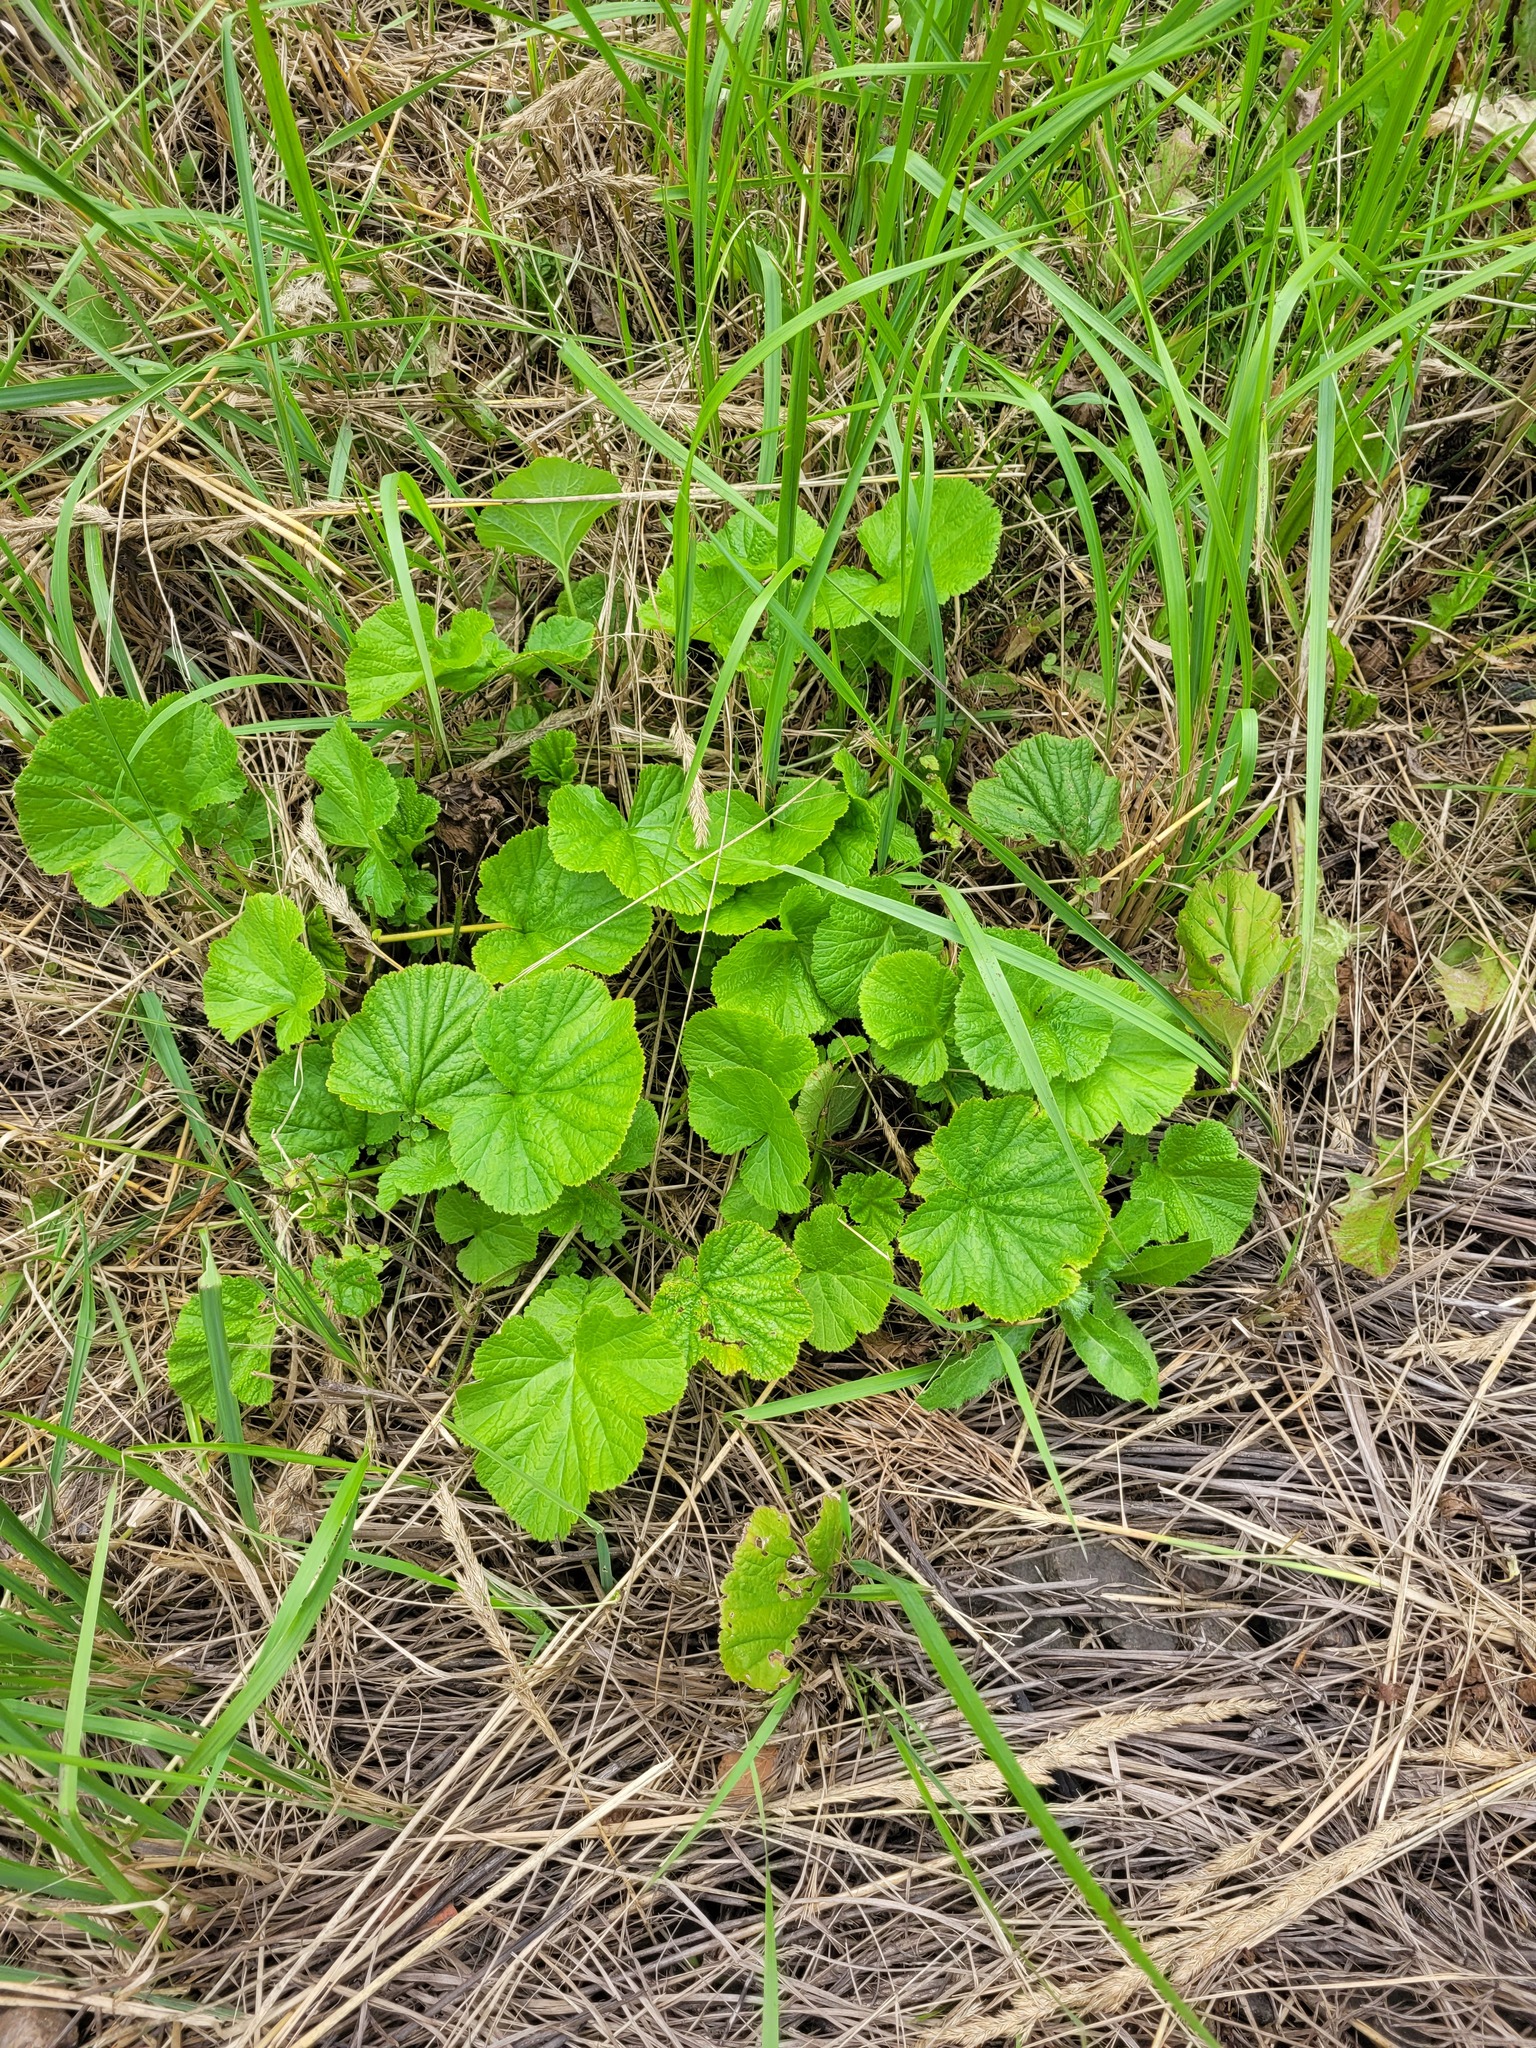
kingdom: Plantae
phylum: Tracheophyta
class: Magnoliopsida
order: Rosales
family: Rosaceae
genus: Geum
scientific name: Geum
